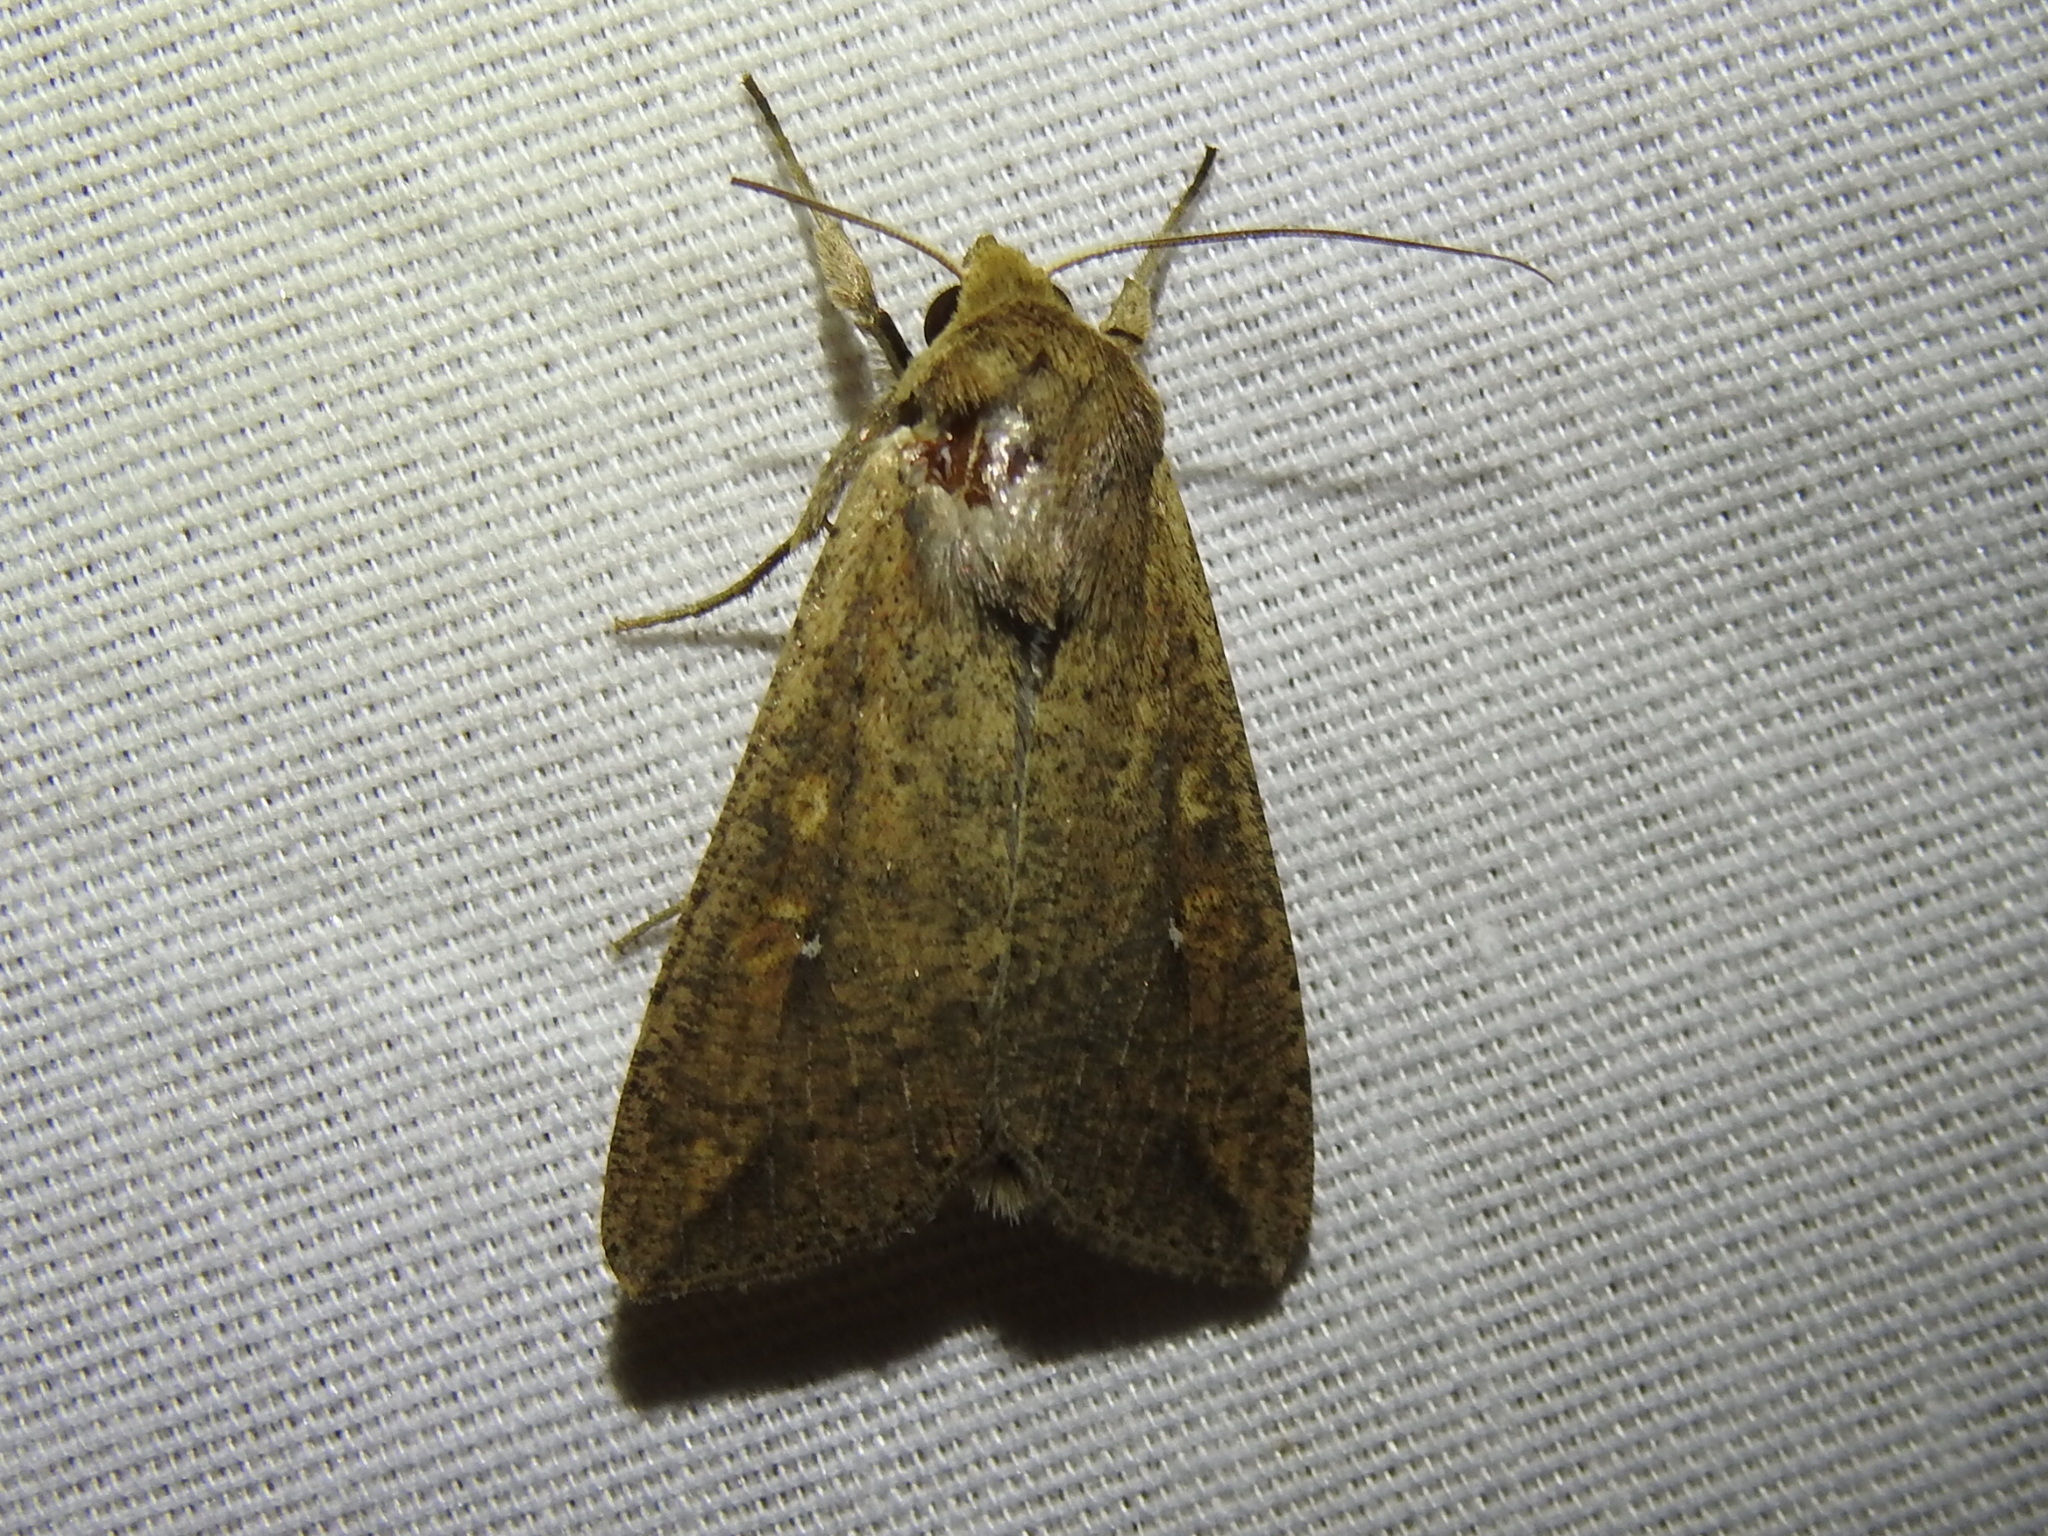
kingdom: Animalia
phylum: Arthropoda
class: Insecta
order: Lepidoptera
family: Noctuidae
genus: Mythimna
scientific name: Mythimna unipuncta
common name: White-speck
